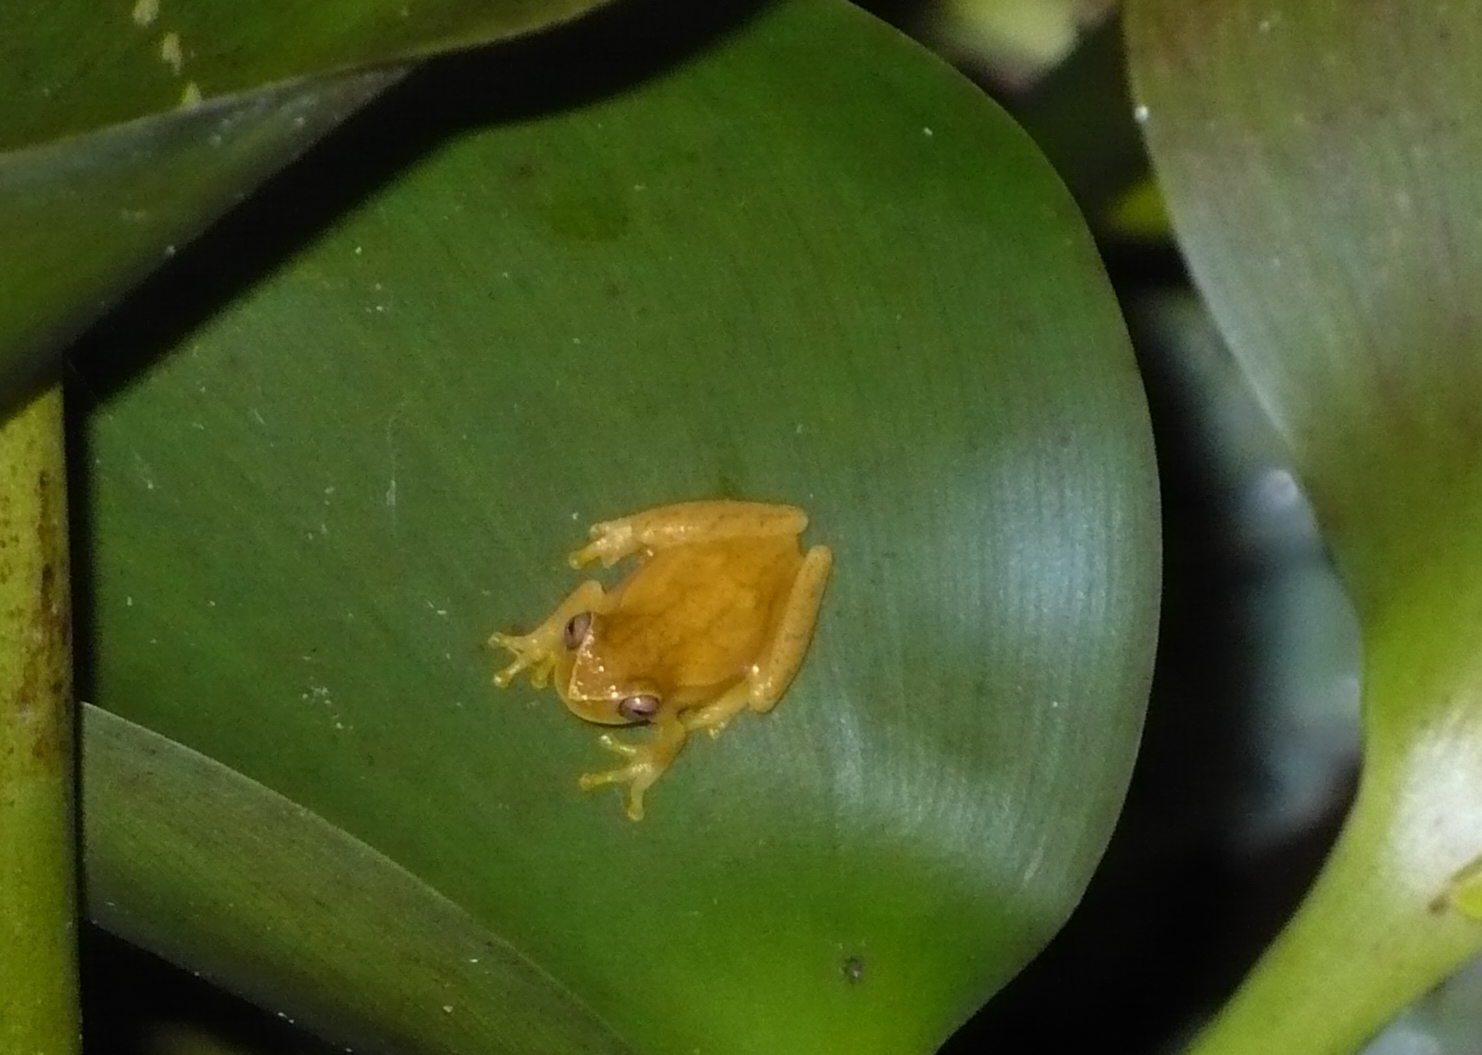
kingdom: Animalia
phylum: Chordata
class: Amphibia
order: Anura
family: Hylidae
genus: Dendropsophus
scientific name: Dendropsophus microcephalus
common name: Small-headed treefrog
